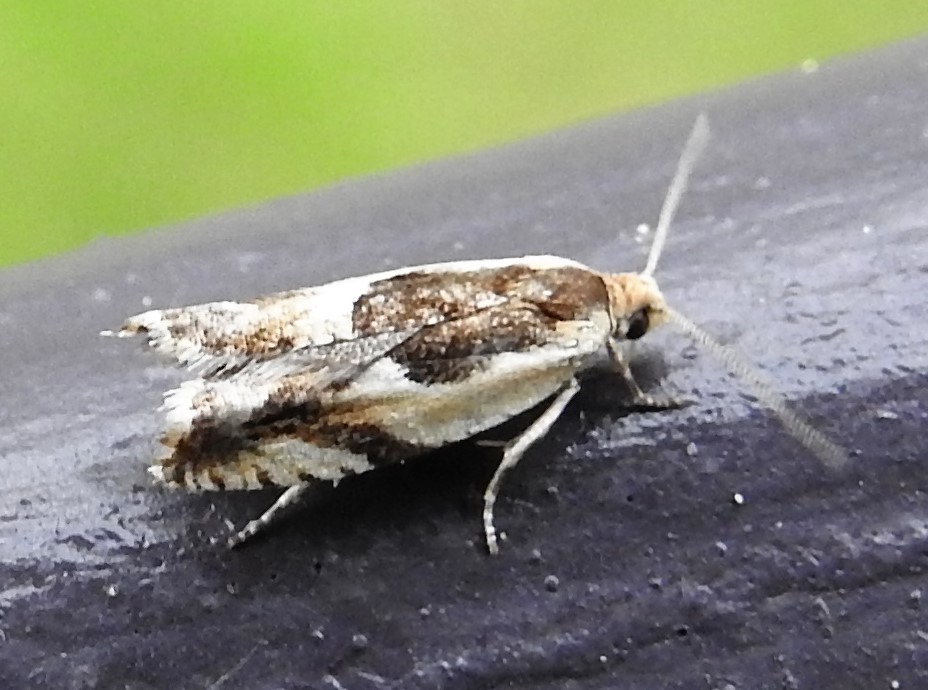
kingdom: Animalia
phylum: Arthropoda
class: Insecta
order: Lepidoptera
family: Tortricidae
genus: Ancylis
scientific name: Ancylis discigerana
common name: Yellow birch leaffolder moth
